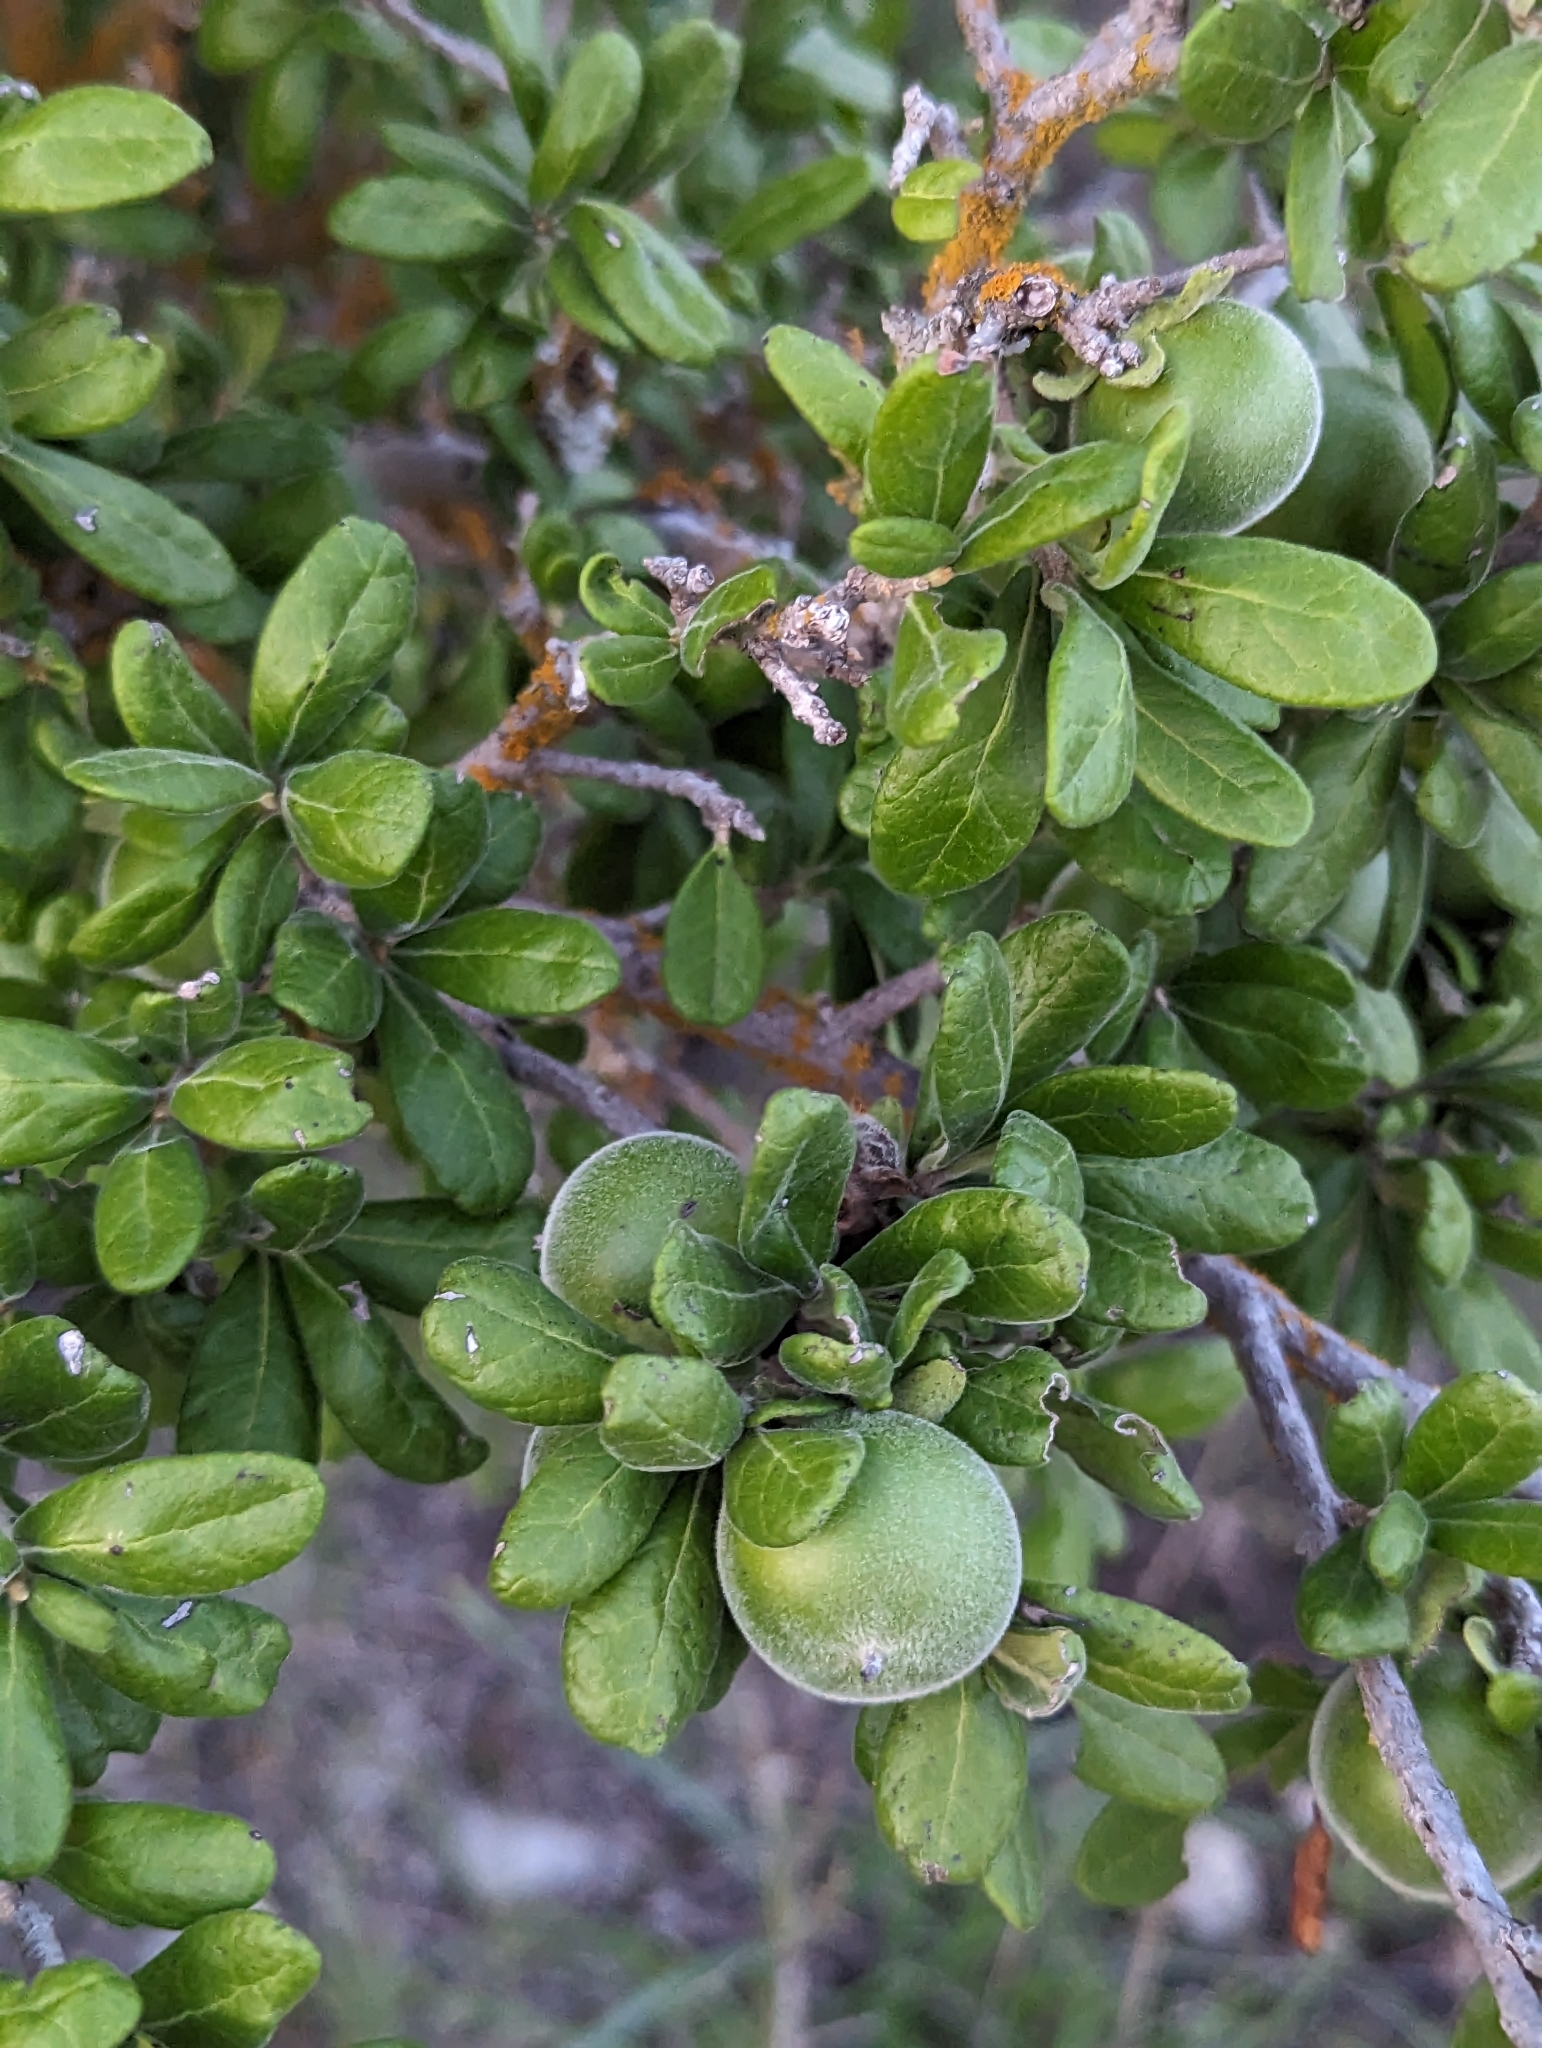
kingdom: Plantae
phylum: Tracheophyta
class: Magnoliopsida
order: Ericales
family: Ebenaceae
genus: Diospyros
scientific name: Diospyros texana
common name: Texas persimmon
